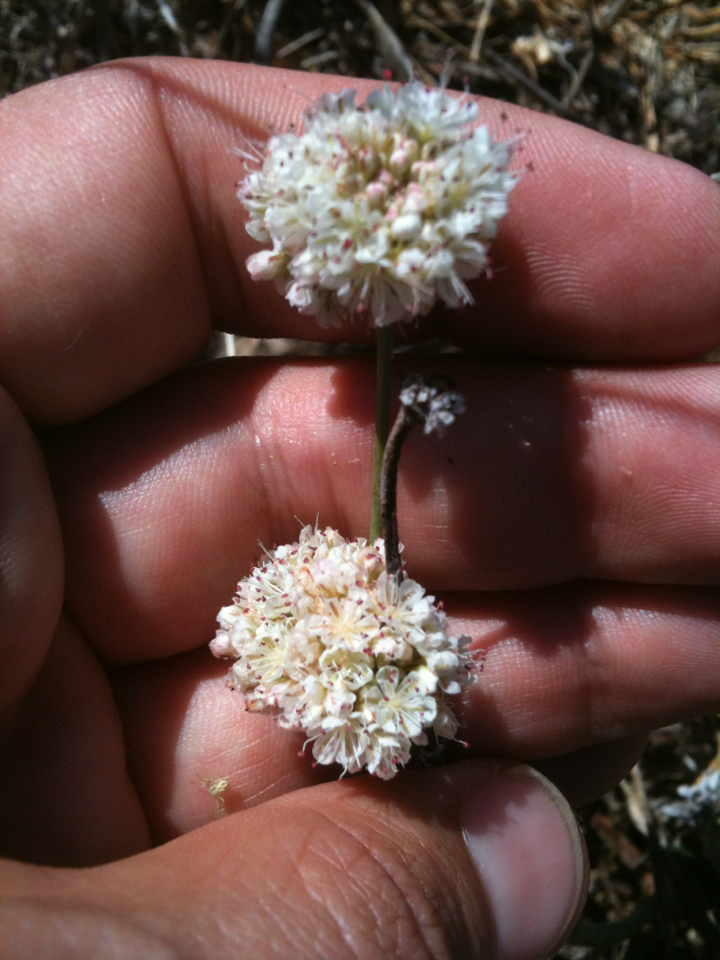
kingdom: Plantae
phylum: Tracheophyta
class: Magnoliopsida
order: Caryophyllales
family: Polygonaceae
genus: Eriogonum
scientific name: Eriogonum nudum
